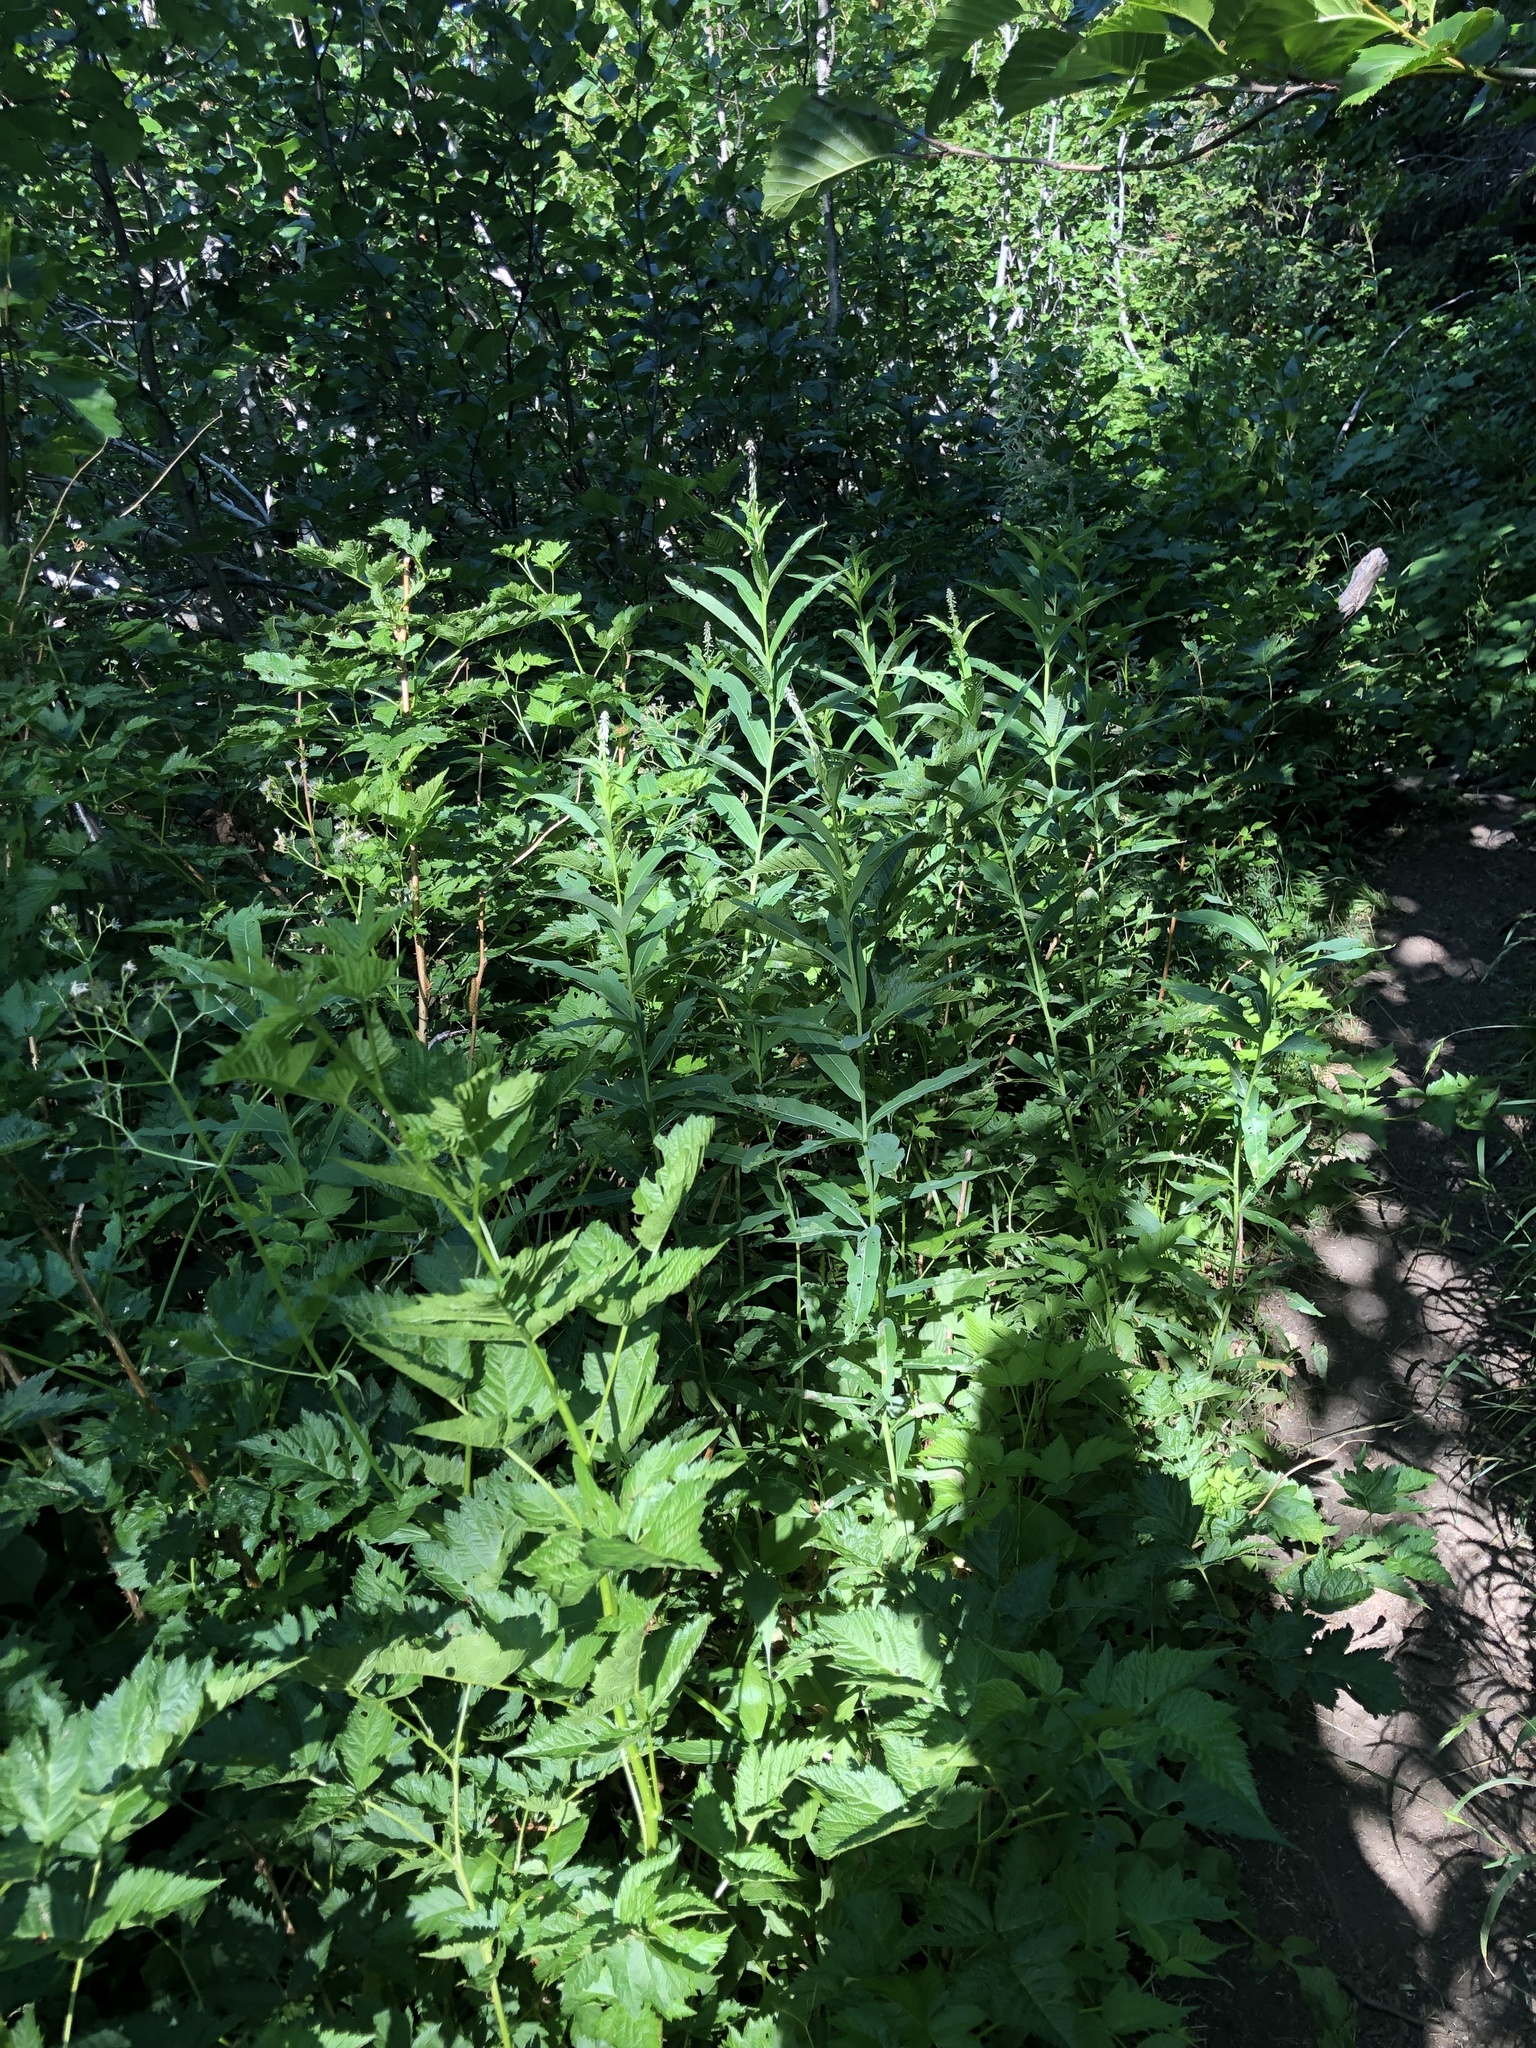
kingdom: Plantae
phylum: Tracheophyta
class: Magnoliopsida
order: Myrtales
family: Onagraceae
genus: Chamaenerion
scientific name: Chamaenerion angustifolium
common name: Fireweed
